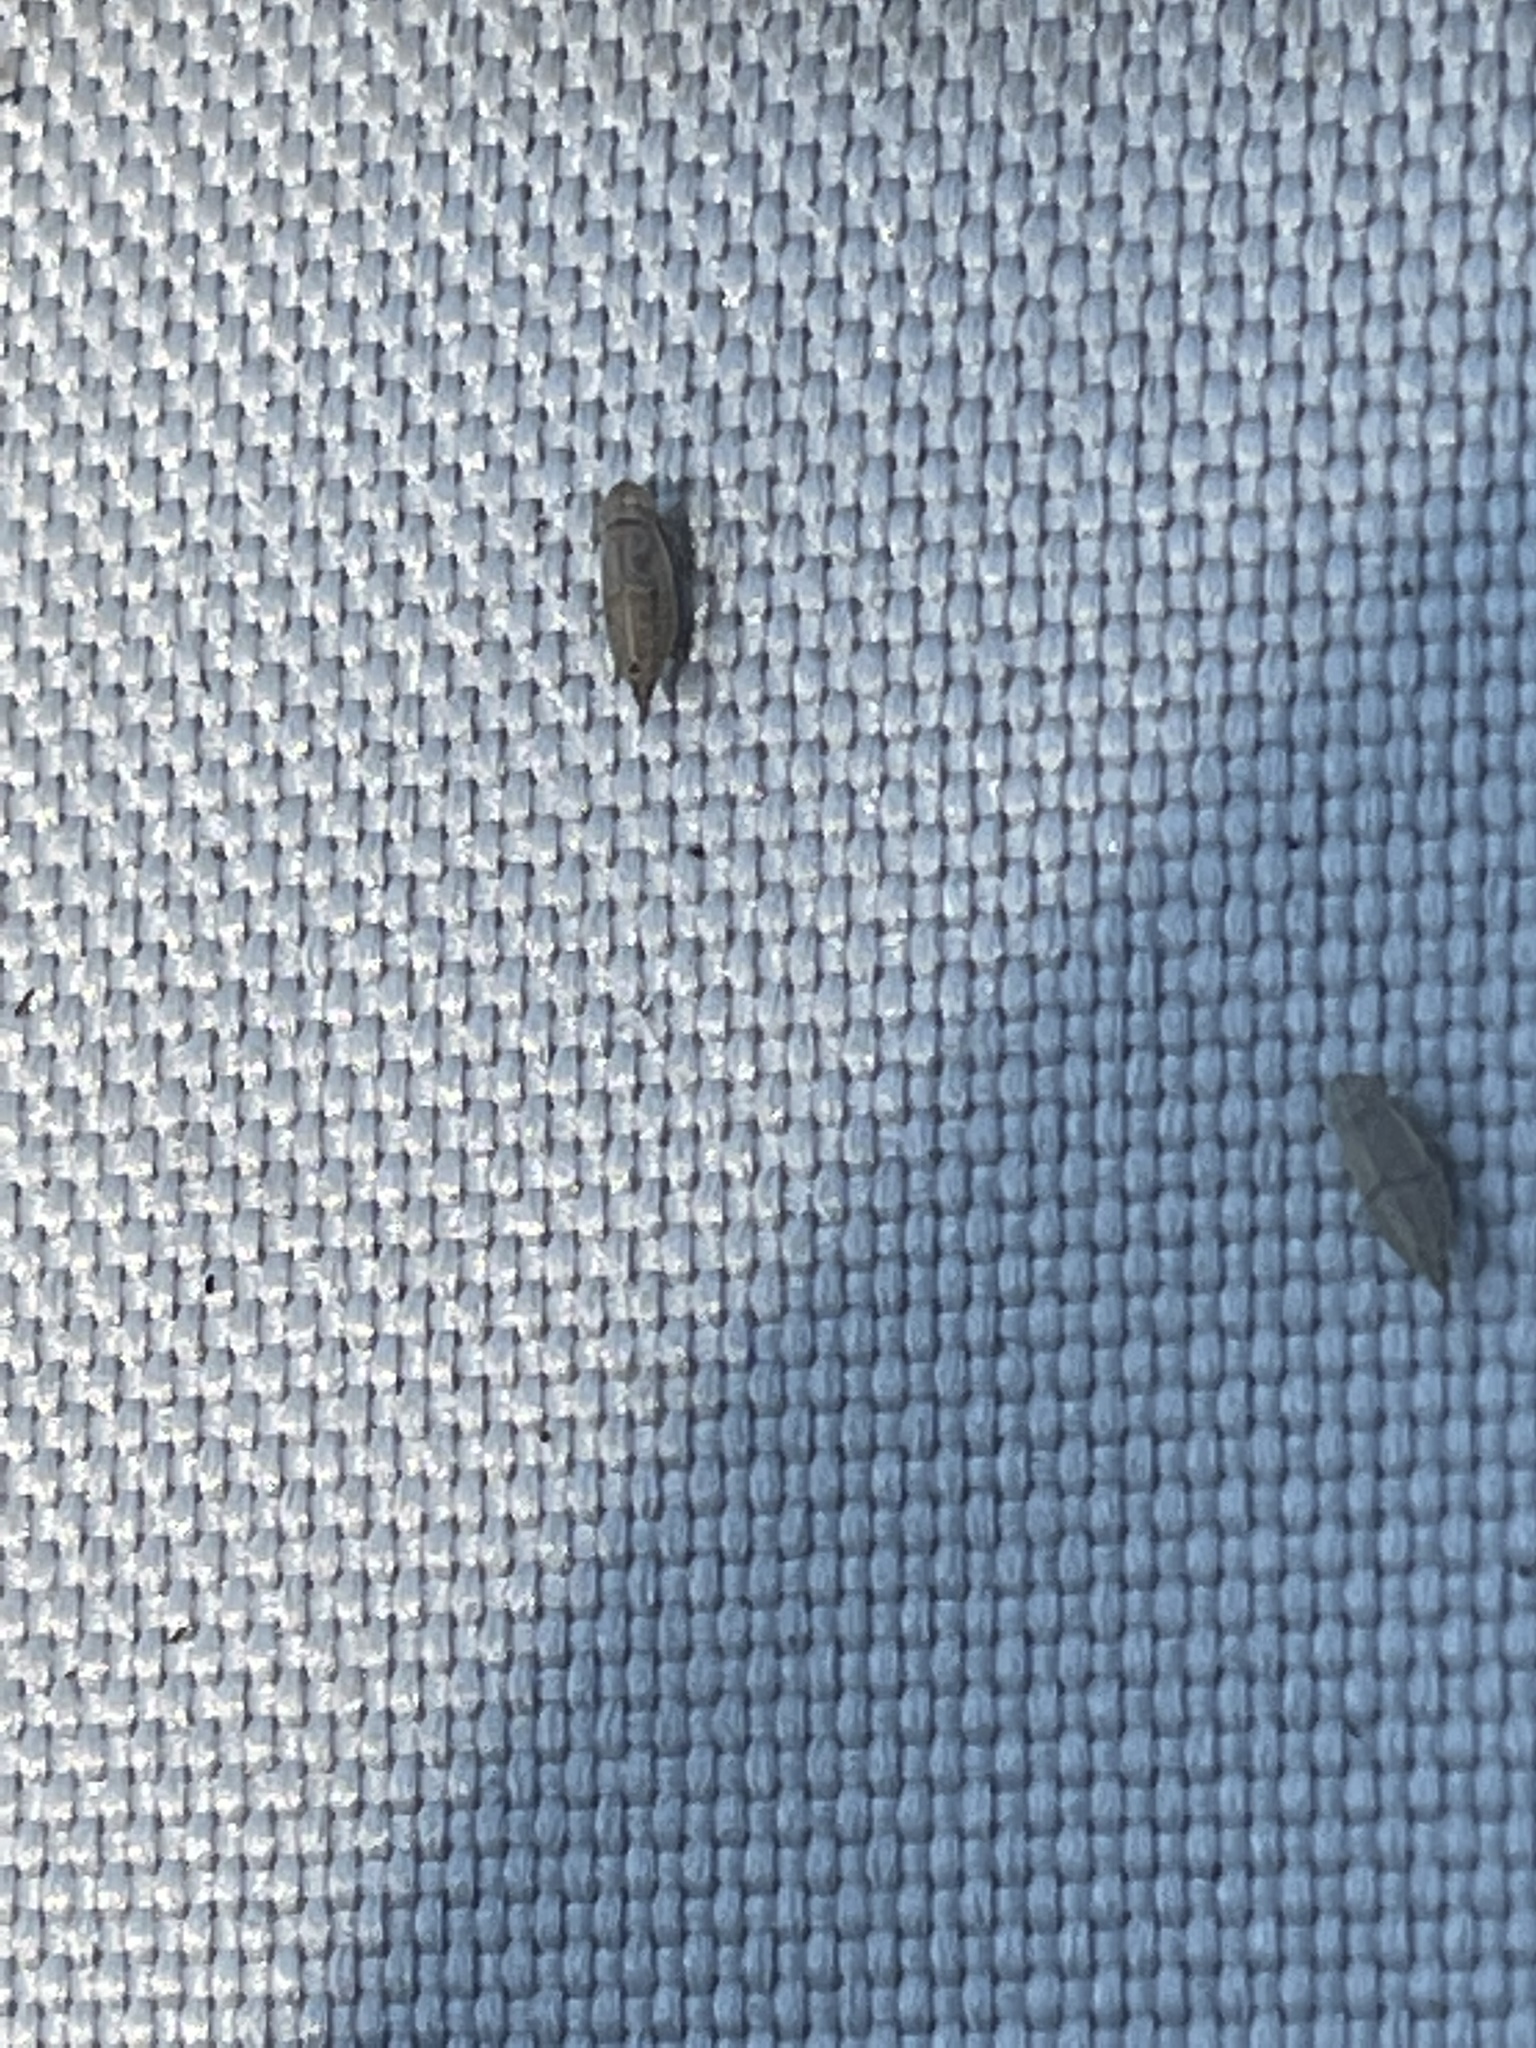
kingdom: Animalia
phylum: Arthropoda
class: Insecta
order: Hemiptera
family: Cicadellidae
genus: Doratura
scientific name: Doratura stylata
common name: Leafhopper
